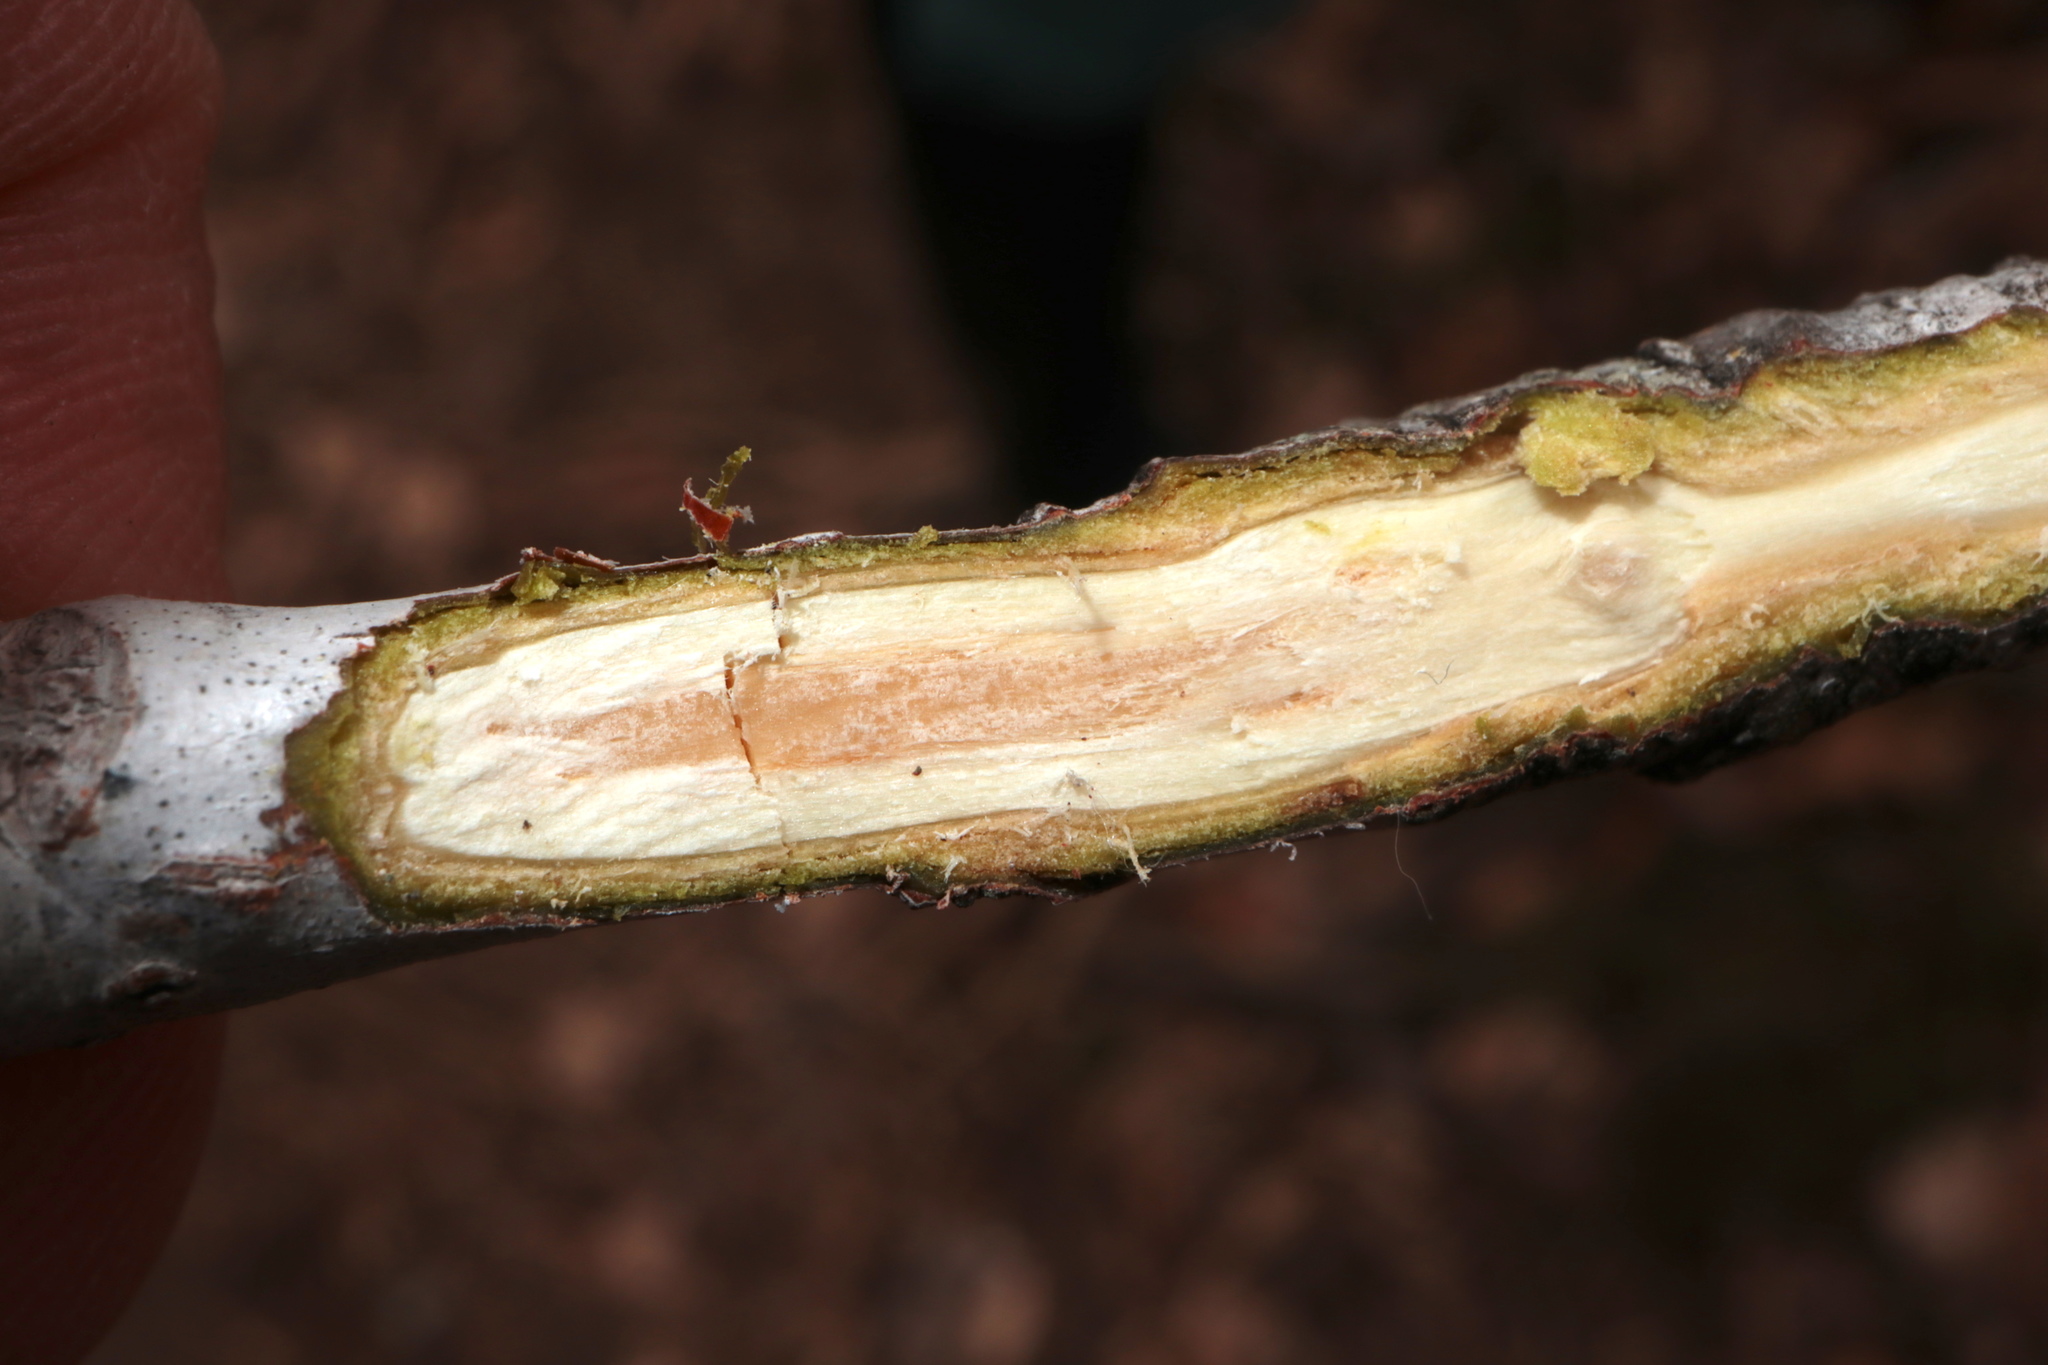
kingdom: Plantae
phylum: Tracheophyta
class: Magnoliopsida
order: Saxifragales
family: Altingiaceae
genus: Liquidambar
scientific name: Liquidambar styraciflua
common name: Sweet gum
